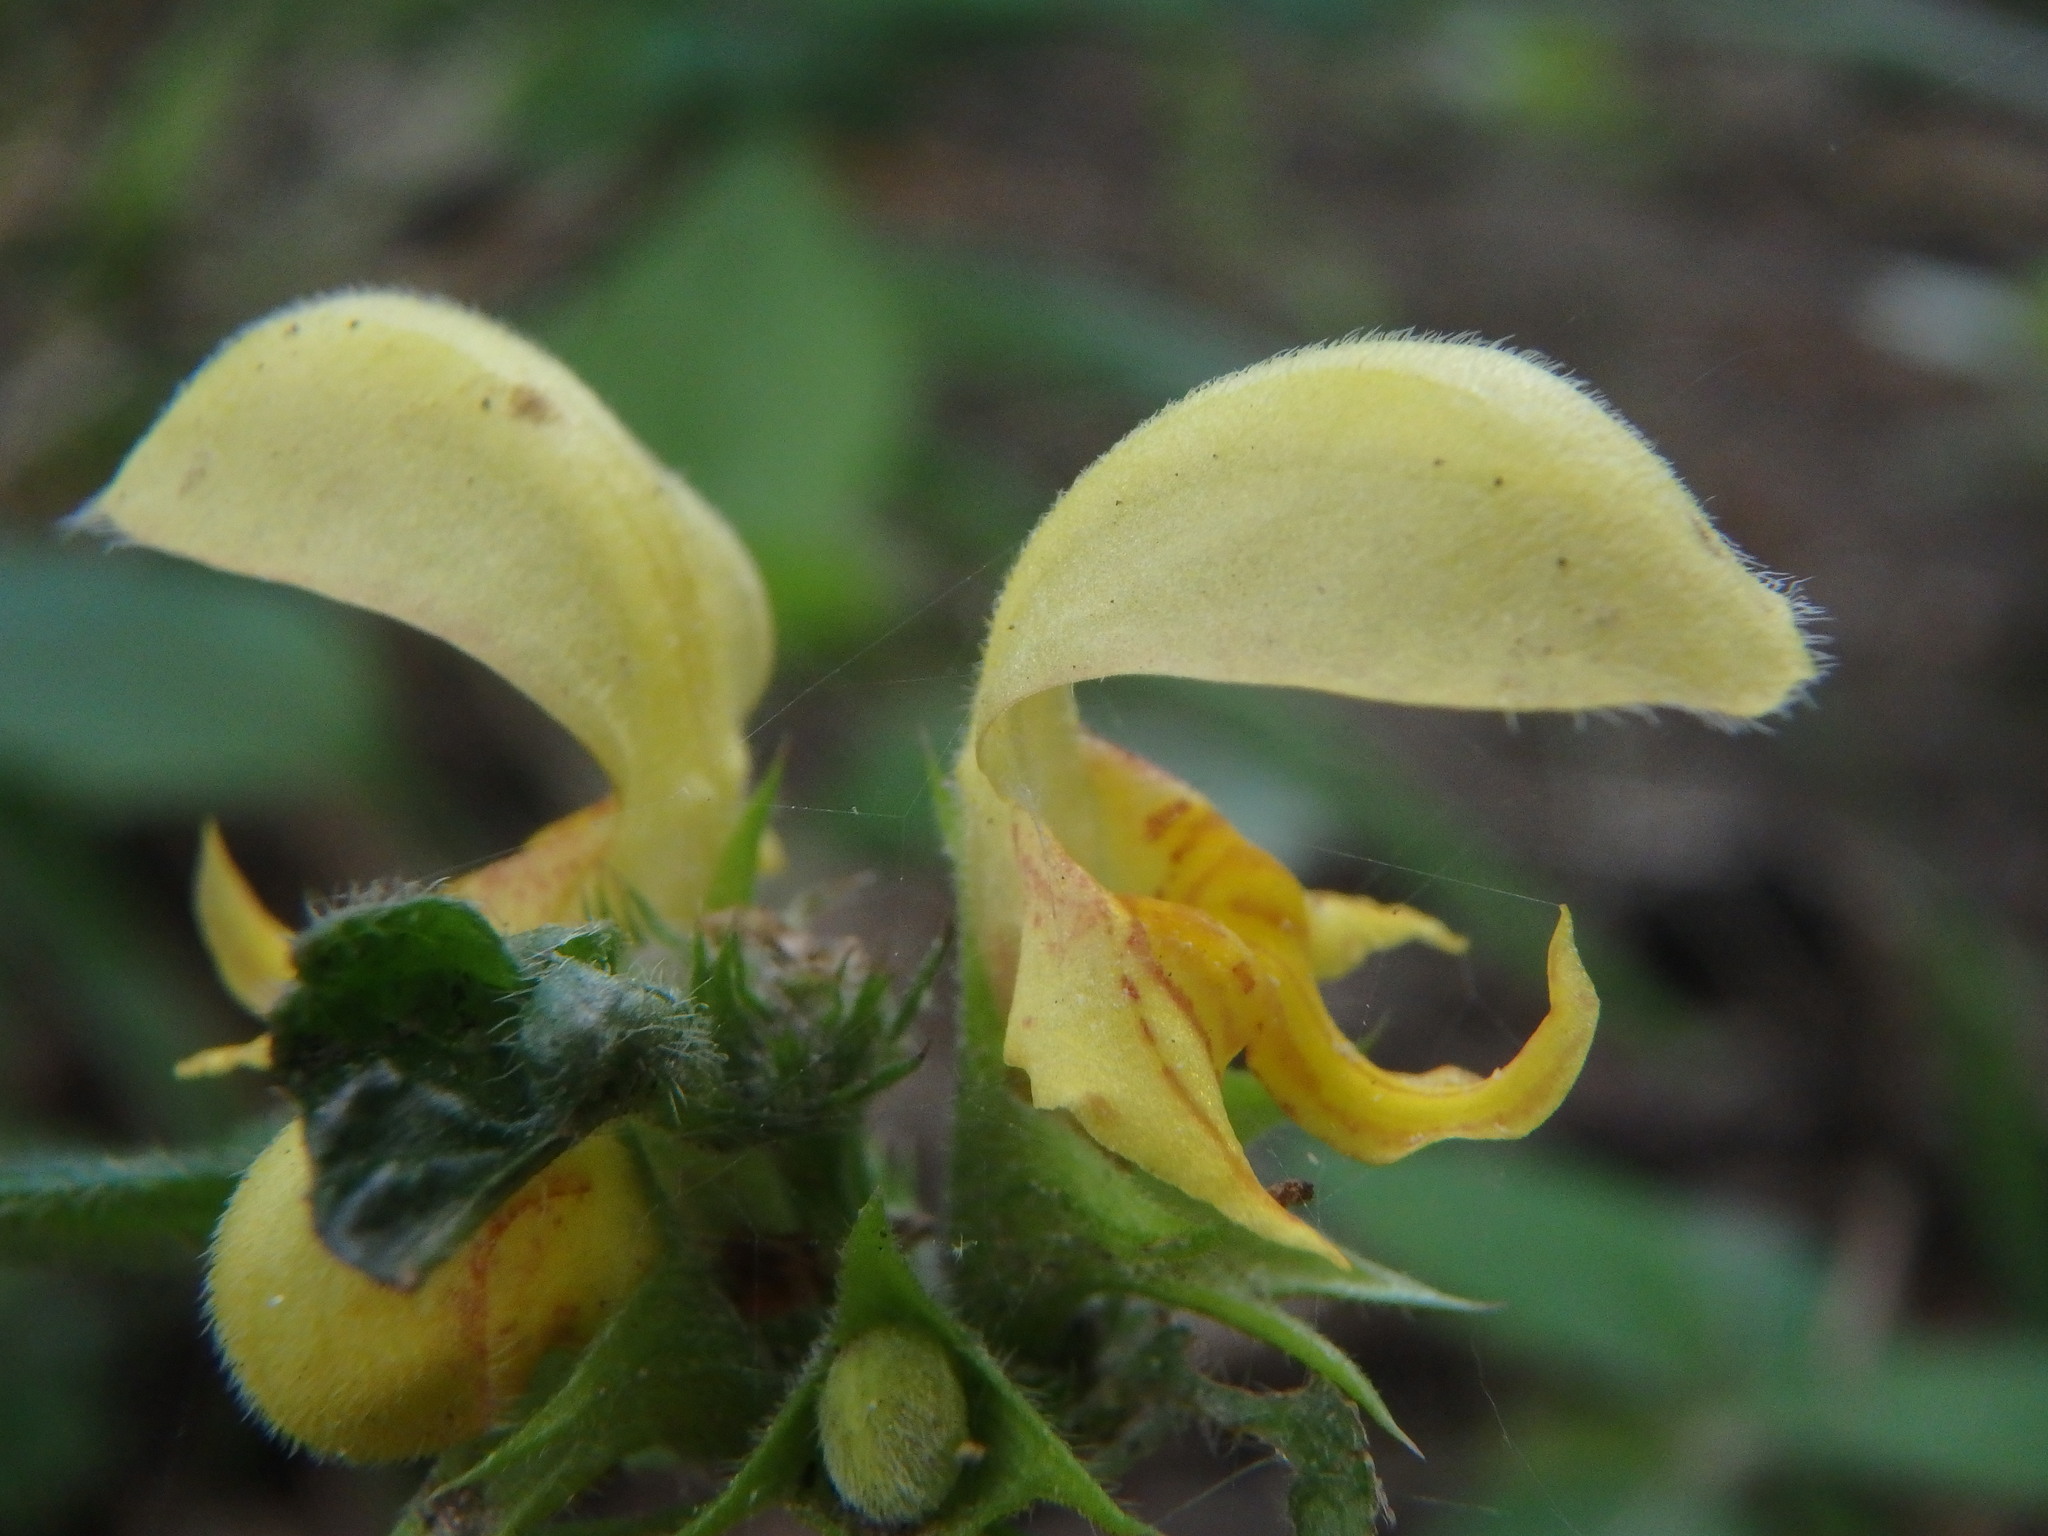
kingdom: Plantae
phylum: Tracheophyta
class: Magnoliopsida
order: Lamiales
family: Lamiaceae
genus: Lamium
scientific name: Lamium galeobdolon
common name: Yellow archangel
